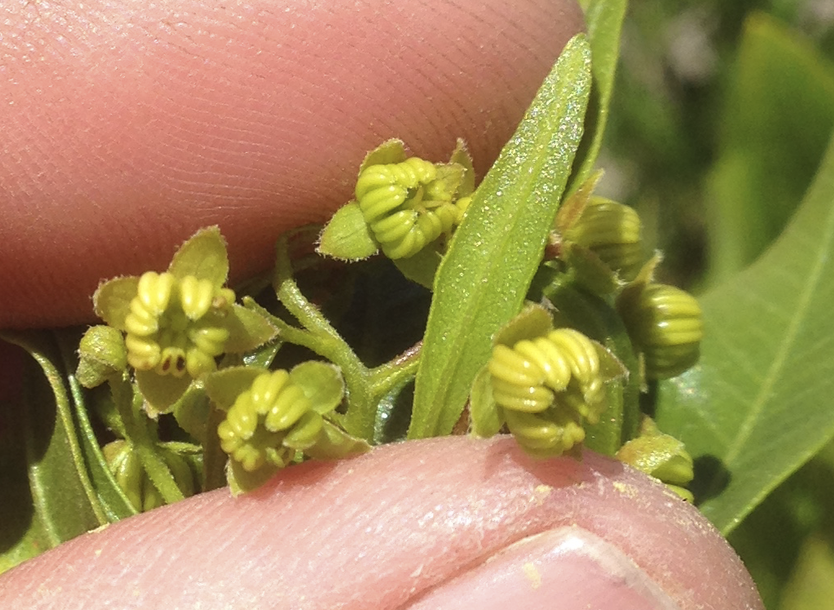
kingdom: Plantae
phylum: Tracheophyta
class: Magnoliopsida
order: Sapindales
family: Sapindaceae
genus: Dodonaea
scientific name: Dodonaea viscosa
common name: Hopbush
